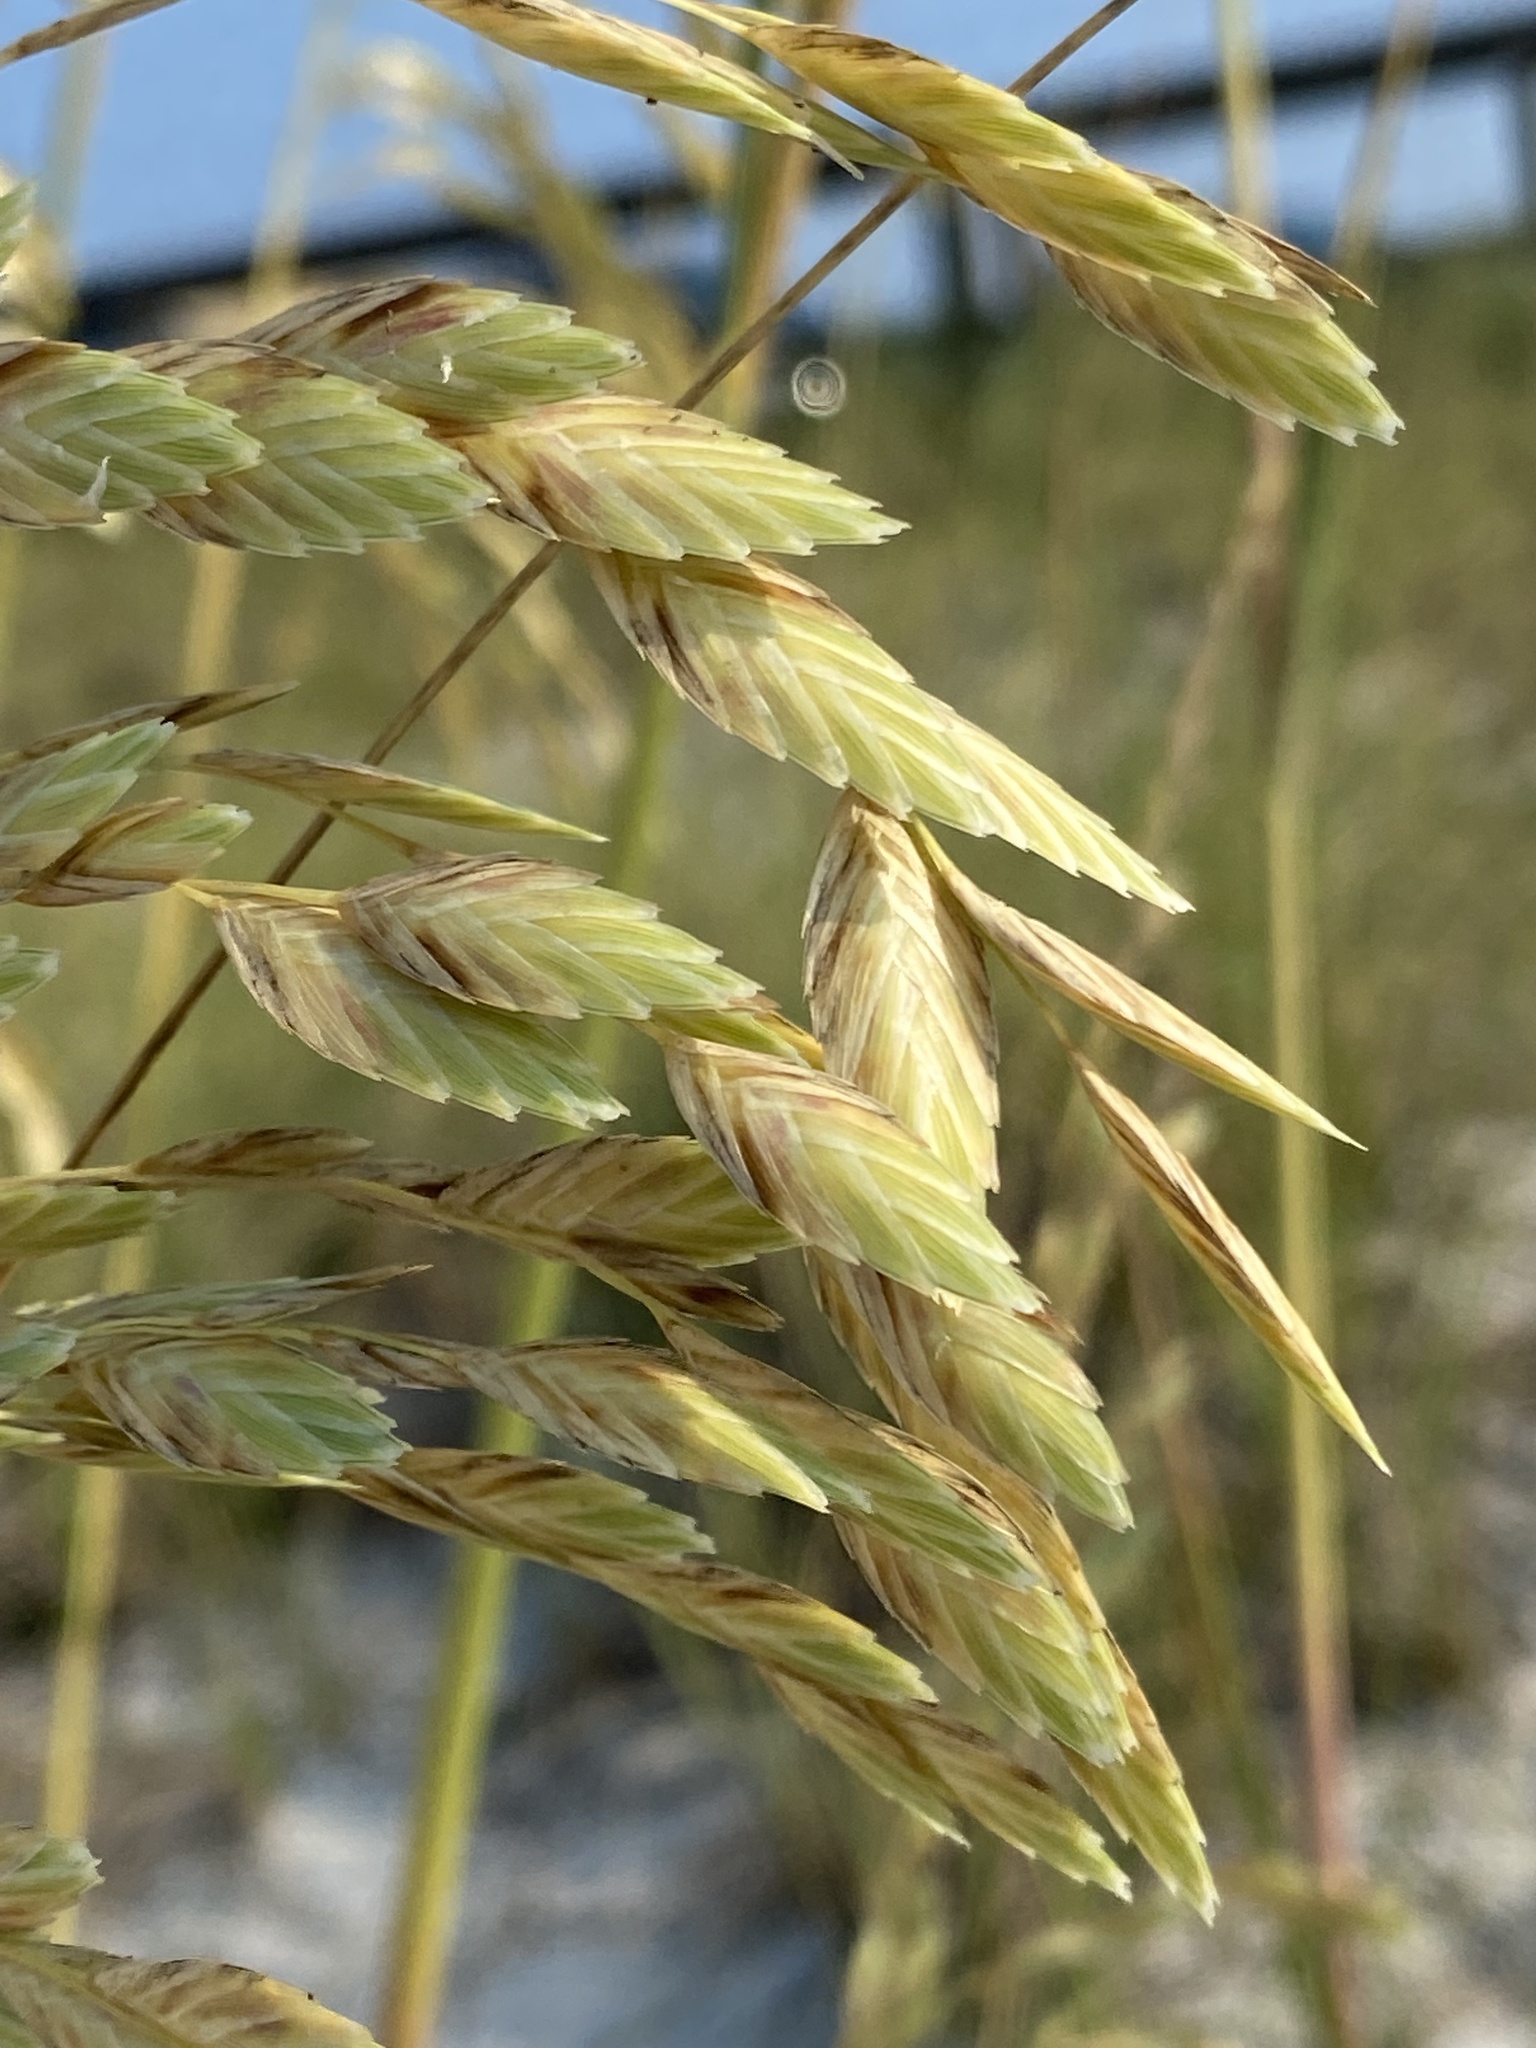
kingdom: Plantae
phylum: Tracheophyta
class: Liliopsida
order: Poales
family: Poaceae
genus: Uniola
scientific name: Uniola paniculata
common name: Seaside-oats
